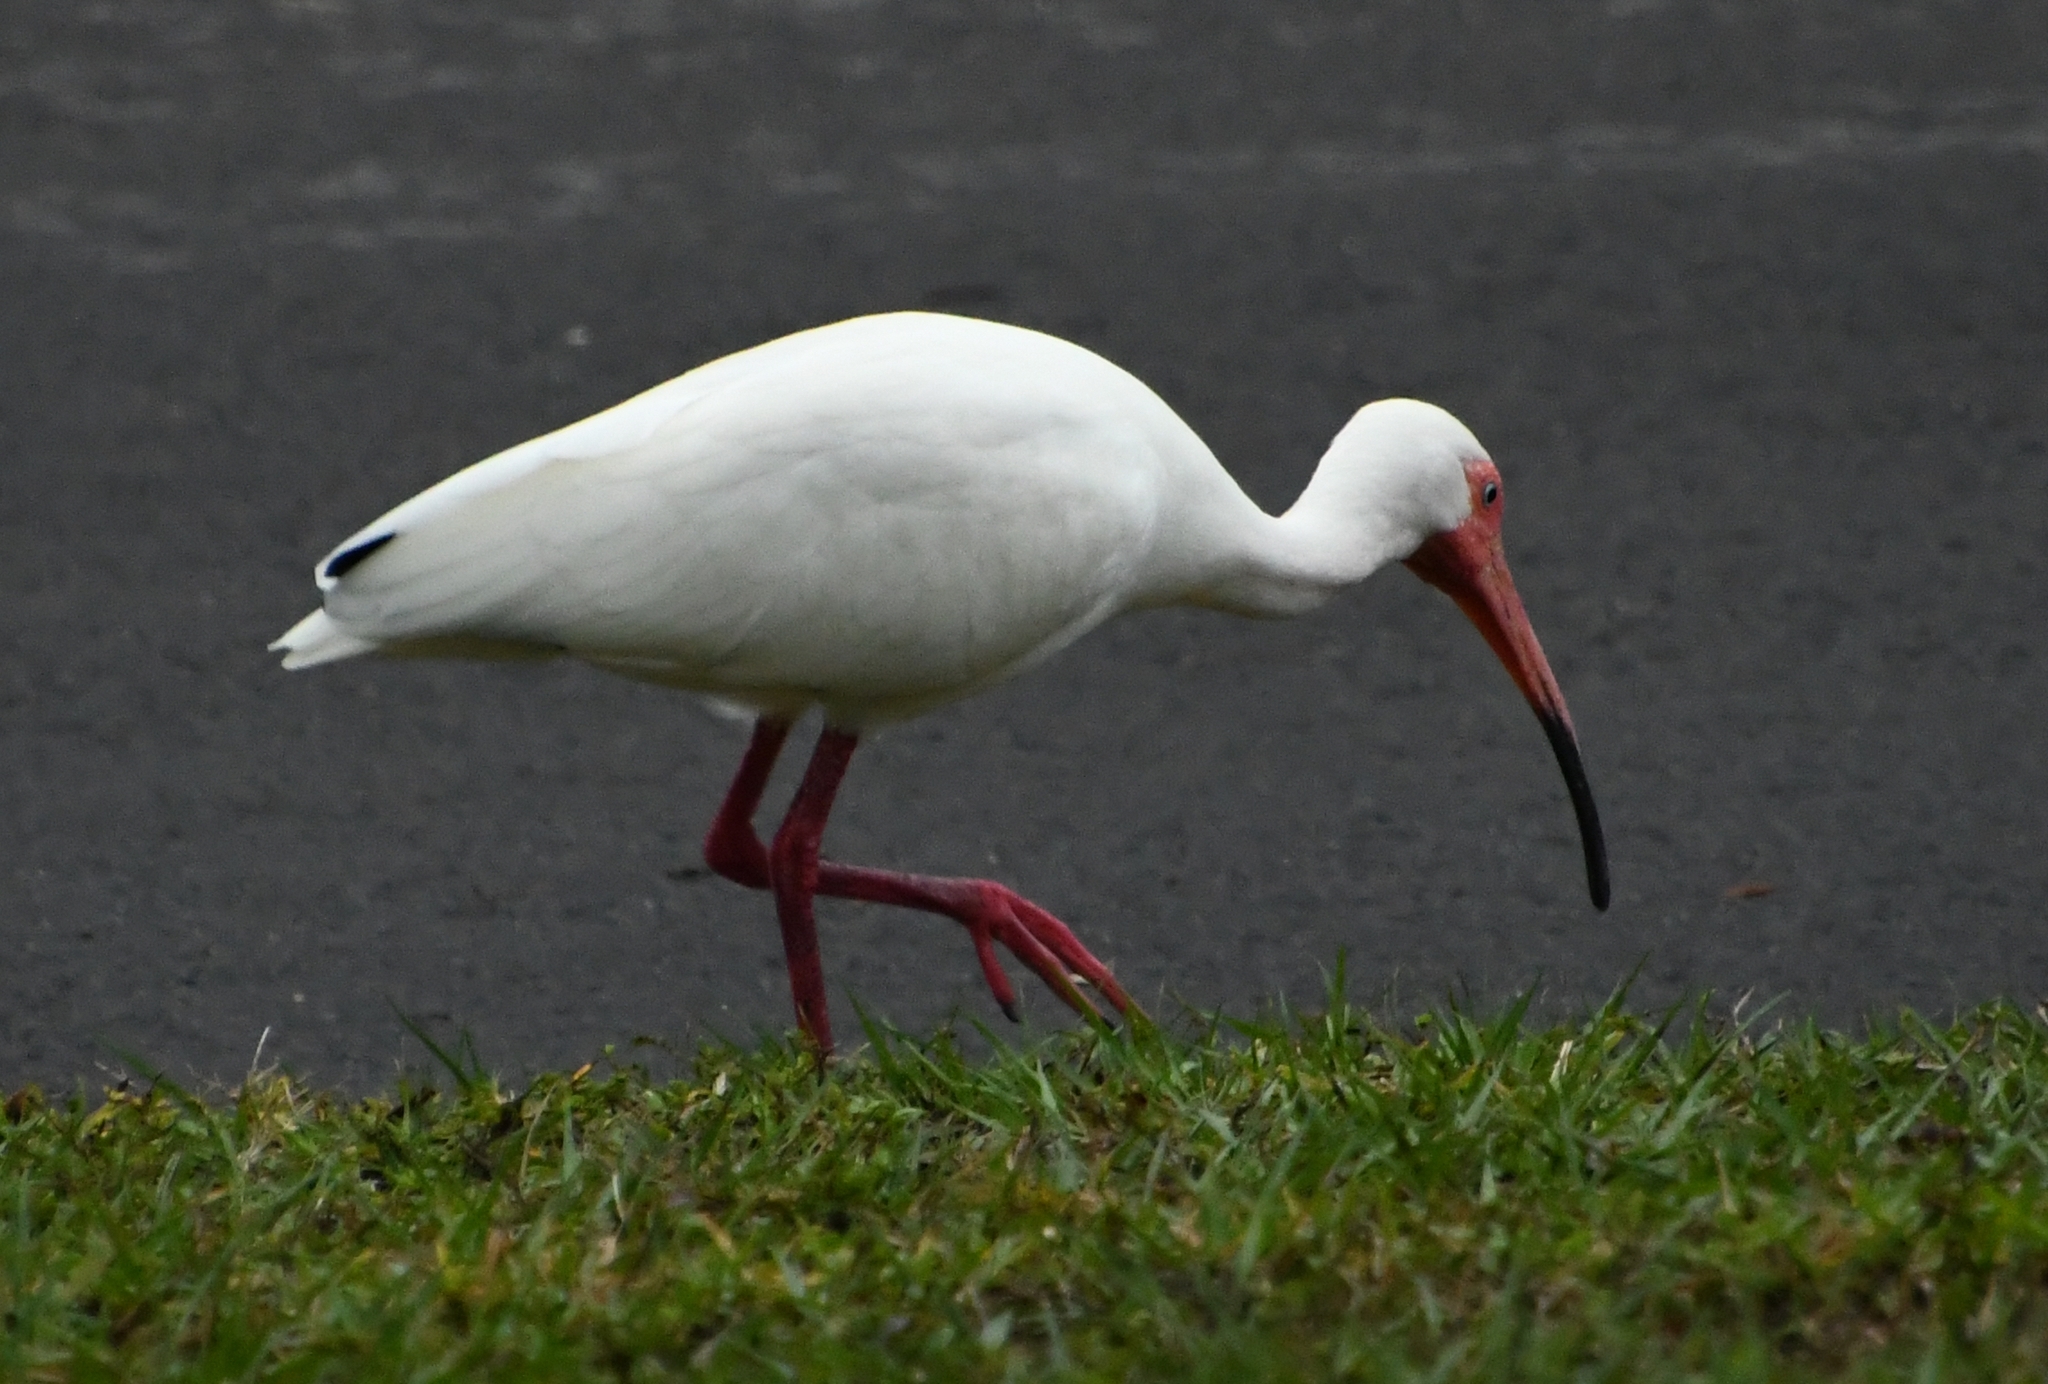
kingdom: Animalia
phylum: Chordata
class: Aves
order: Pelecaniformes
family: Threskiornithidae
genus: Eudocimus
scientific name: Eudocimus albus
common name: White ibis
